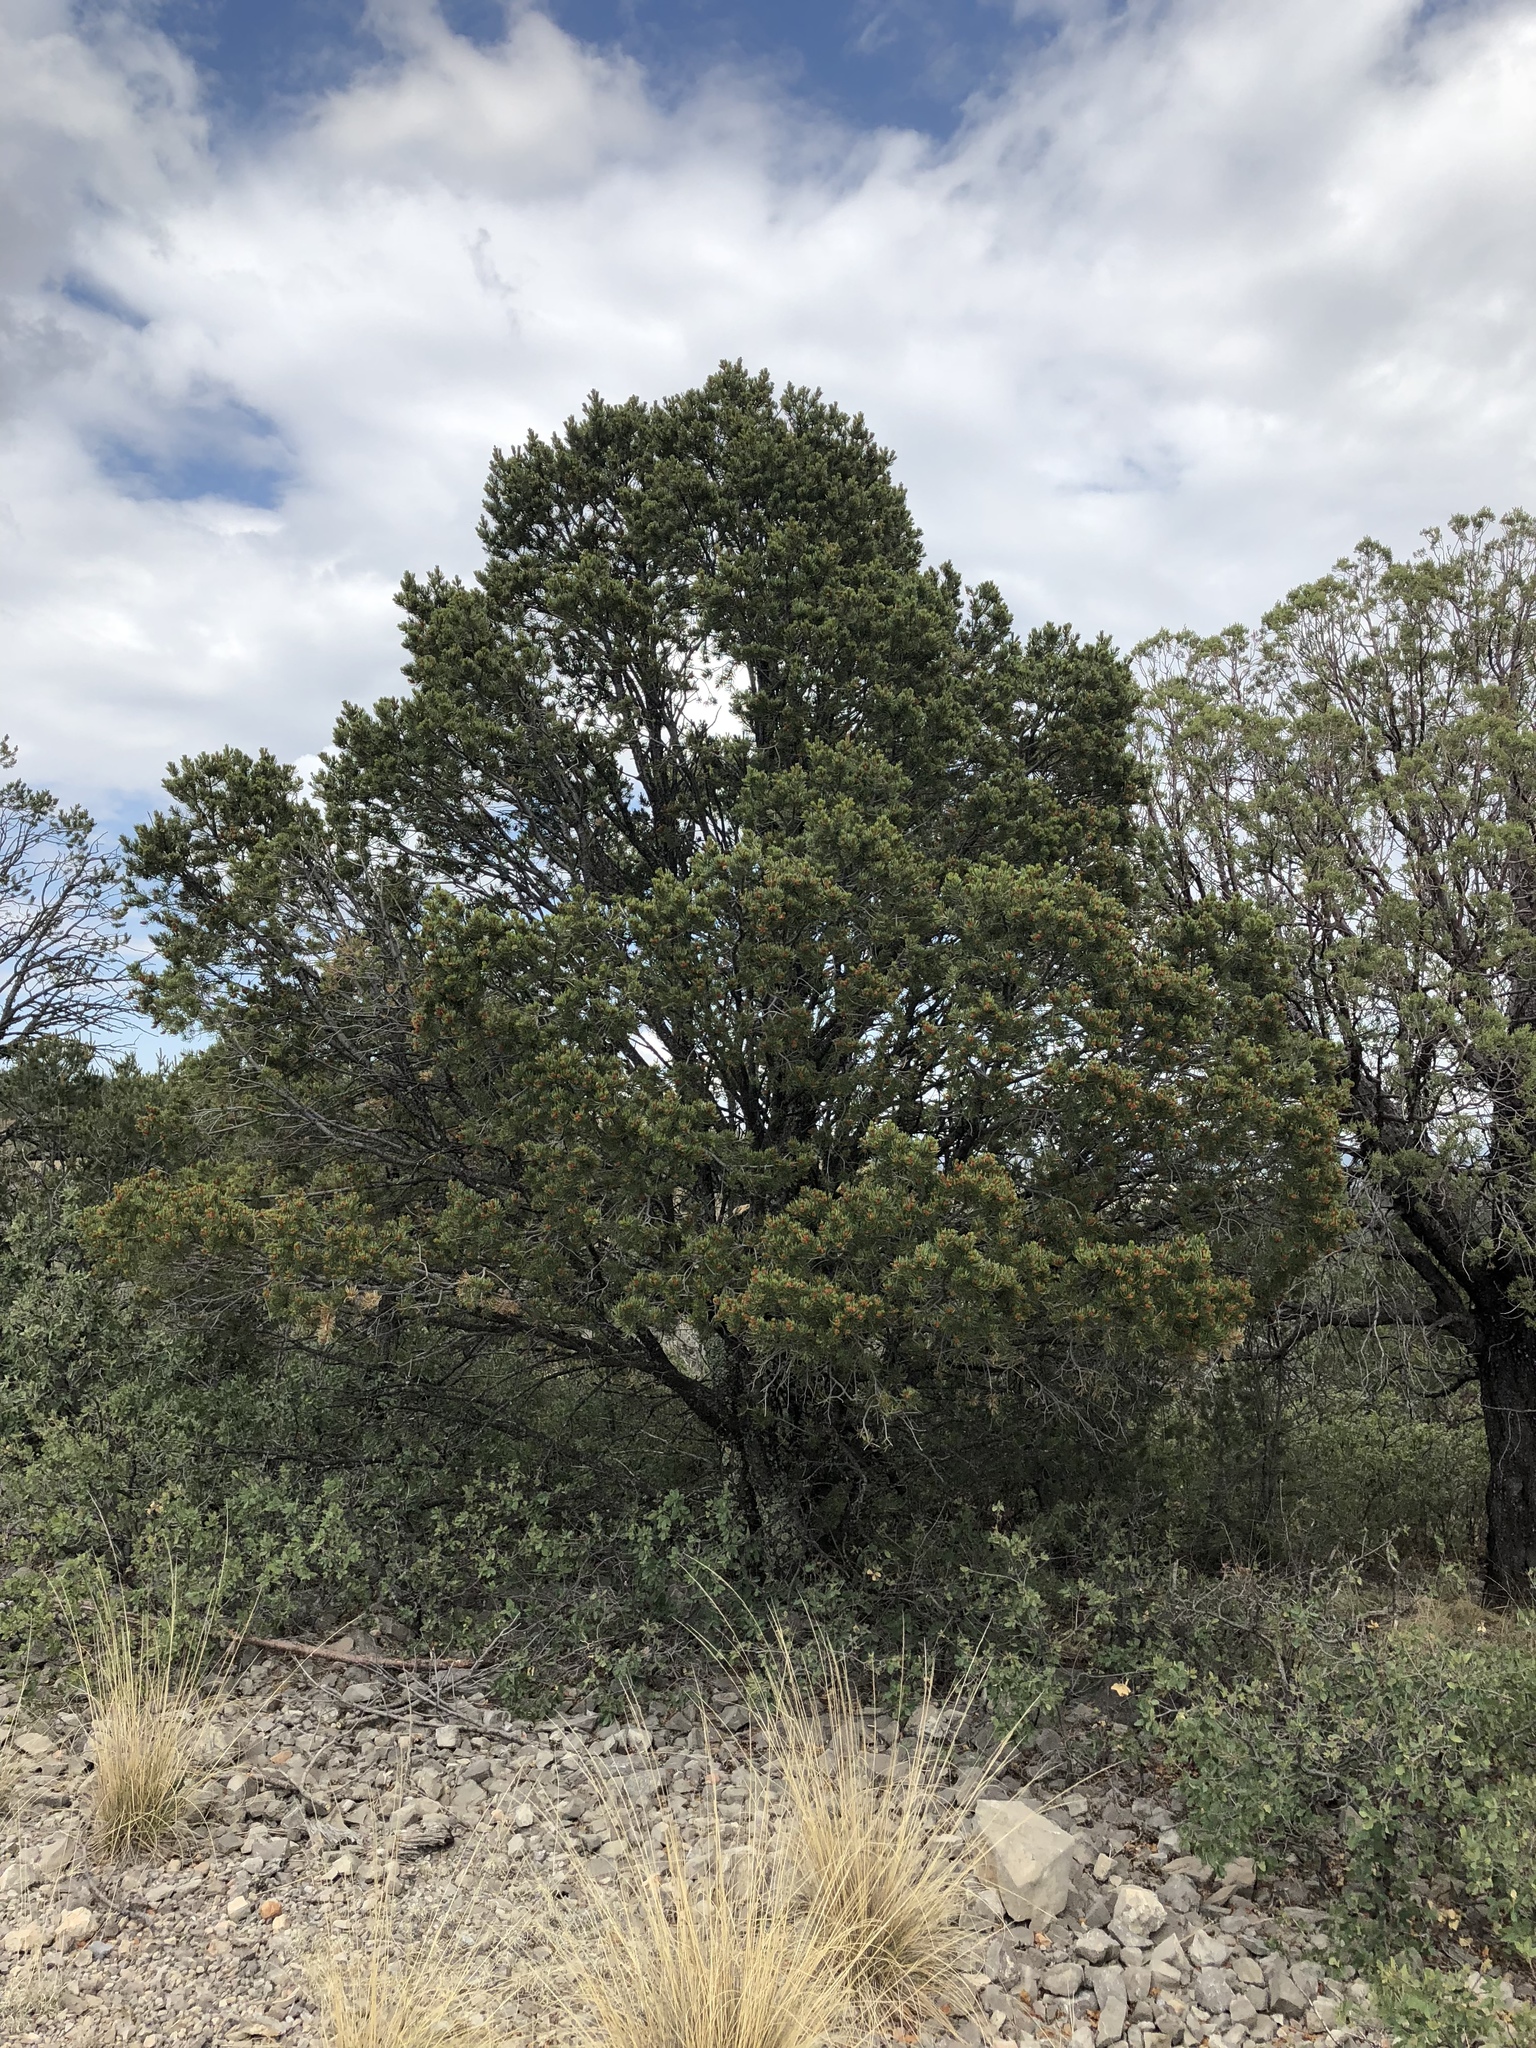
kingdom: Plantae
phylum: Tracheophyta
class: Pinopsida
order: Pinales
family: Pinaceae
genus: Pinus
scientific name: Pinus edulis
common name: Colorado pinyon
